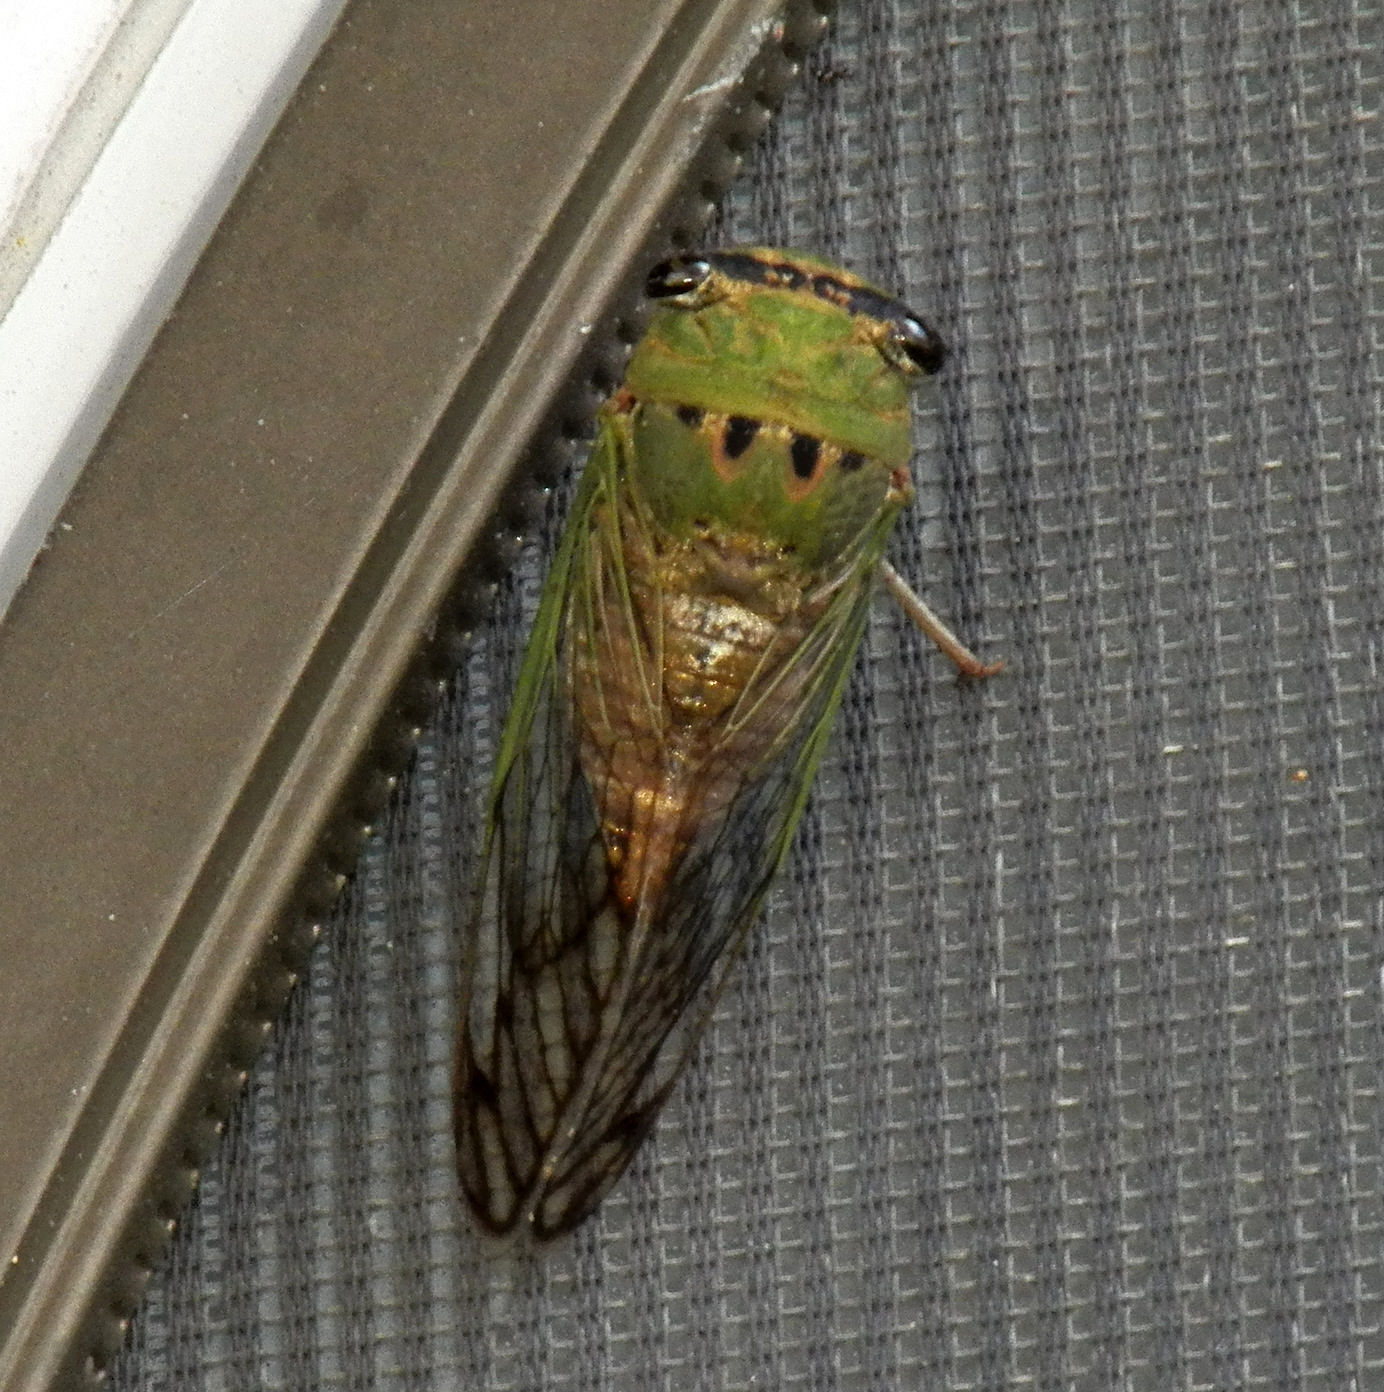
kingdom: Animalia
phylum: Arthropoda
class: Insecta
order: Hemiptera
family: Cicadidae
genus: Neotibicen
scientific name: Neotibicen superbus
